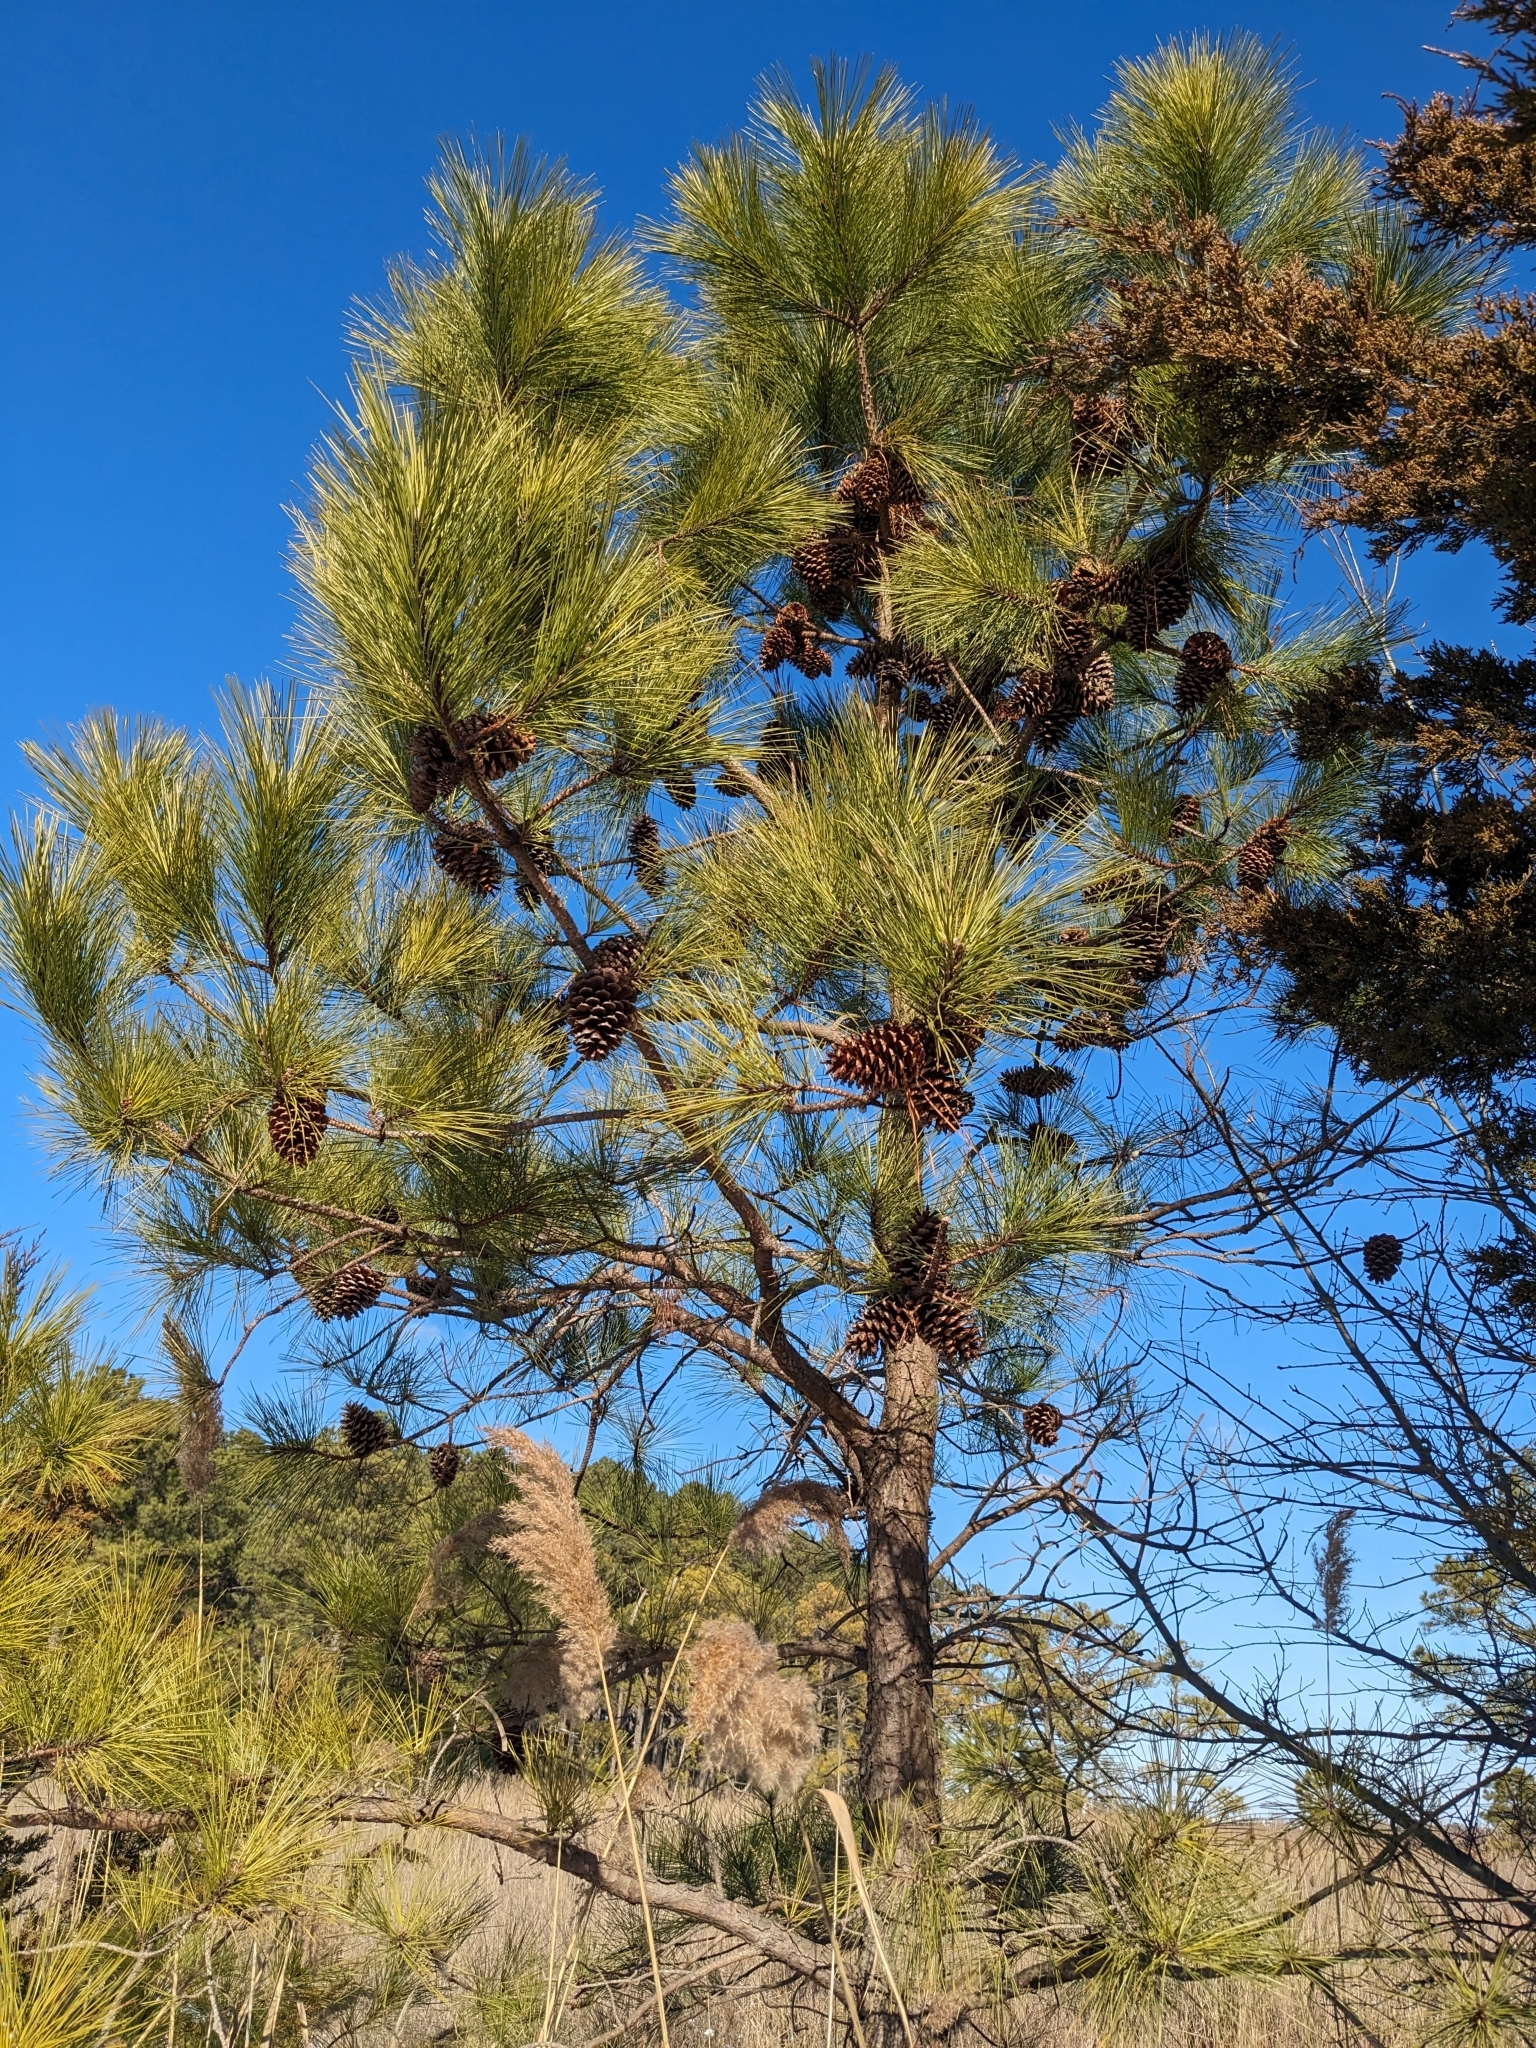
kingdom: Plantae
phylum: Tracheophyta
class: Pinopsida
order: Pinales
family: Pinaceae
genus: Pinus
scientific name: Pinus taeda
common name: Loblolly pine
